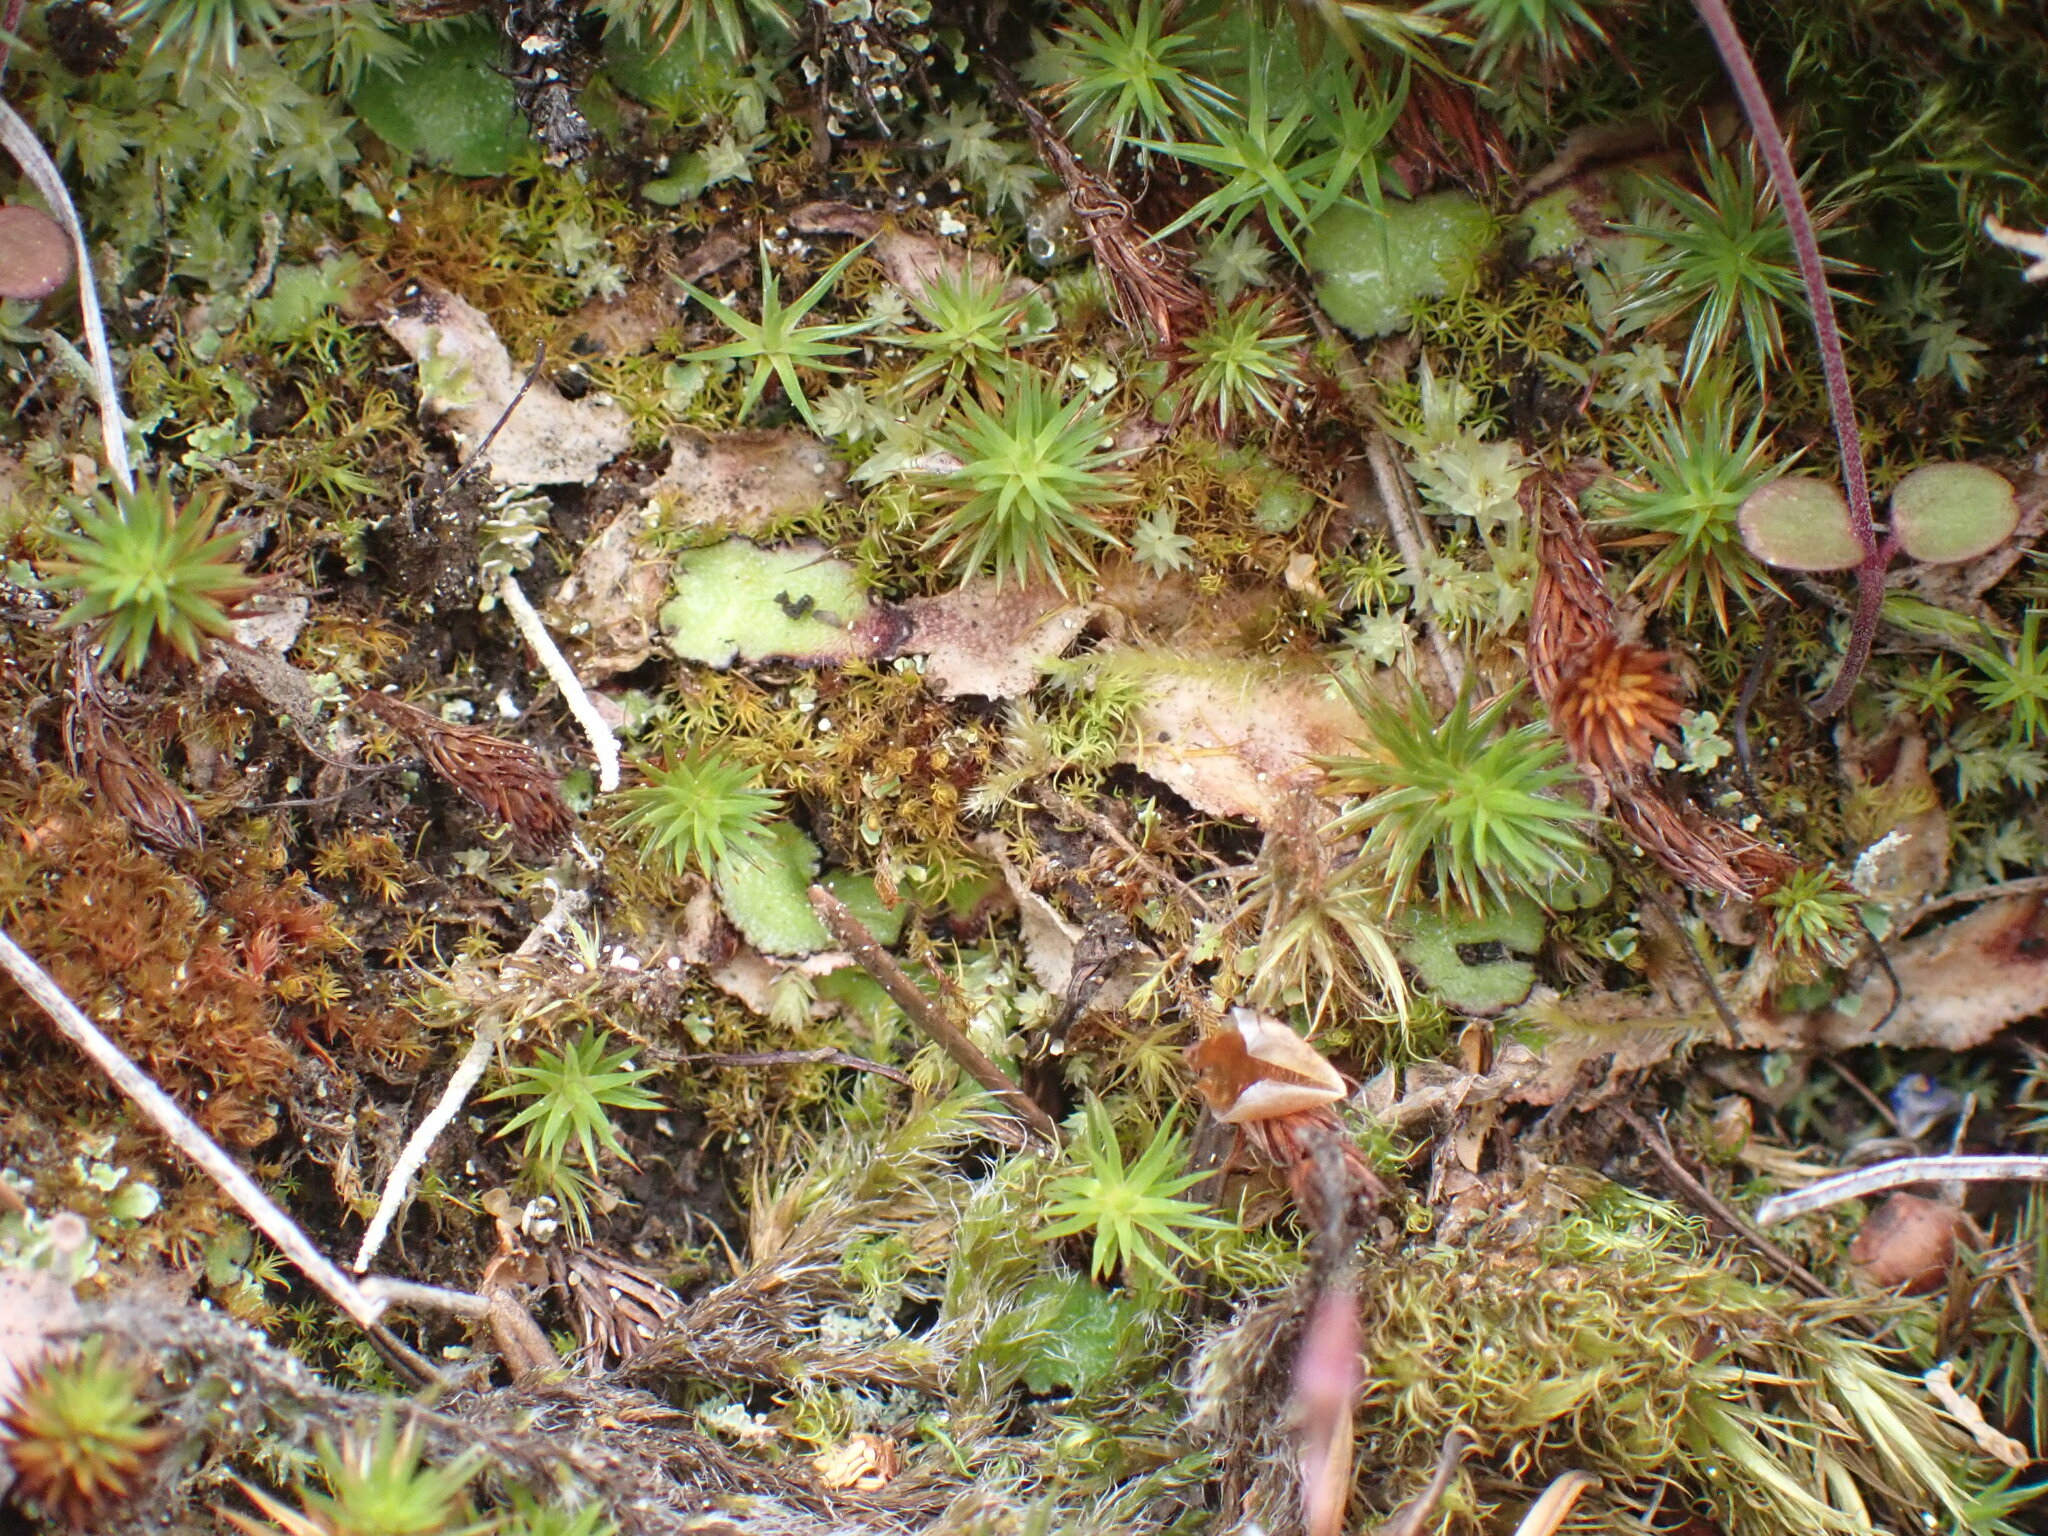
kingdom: Plantae
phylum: Marchantiophyta
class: Marchantiopsida
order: Marchantiales
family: Aytoniaceae
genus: Reboulia
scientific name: Reboulia hemisphaerica
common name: Purple-margined liverwort
